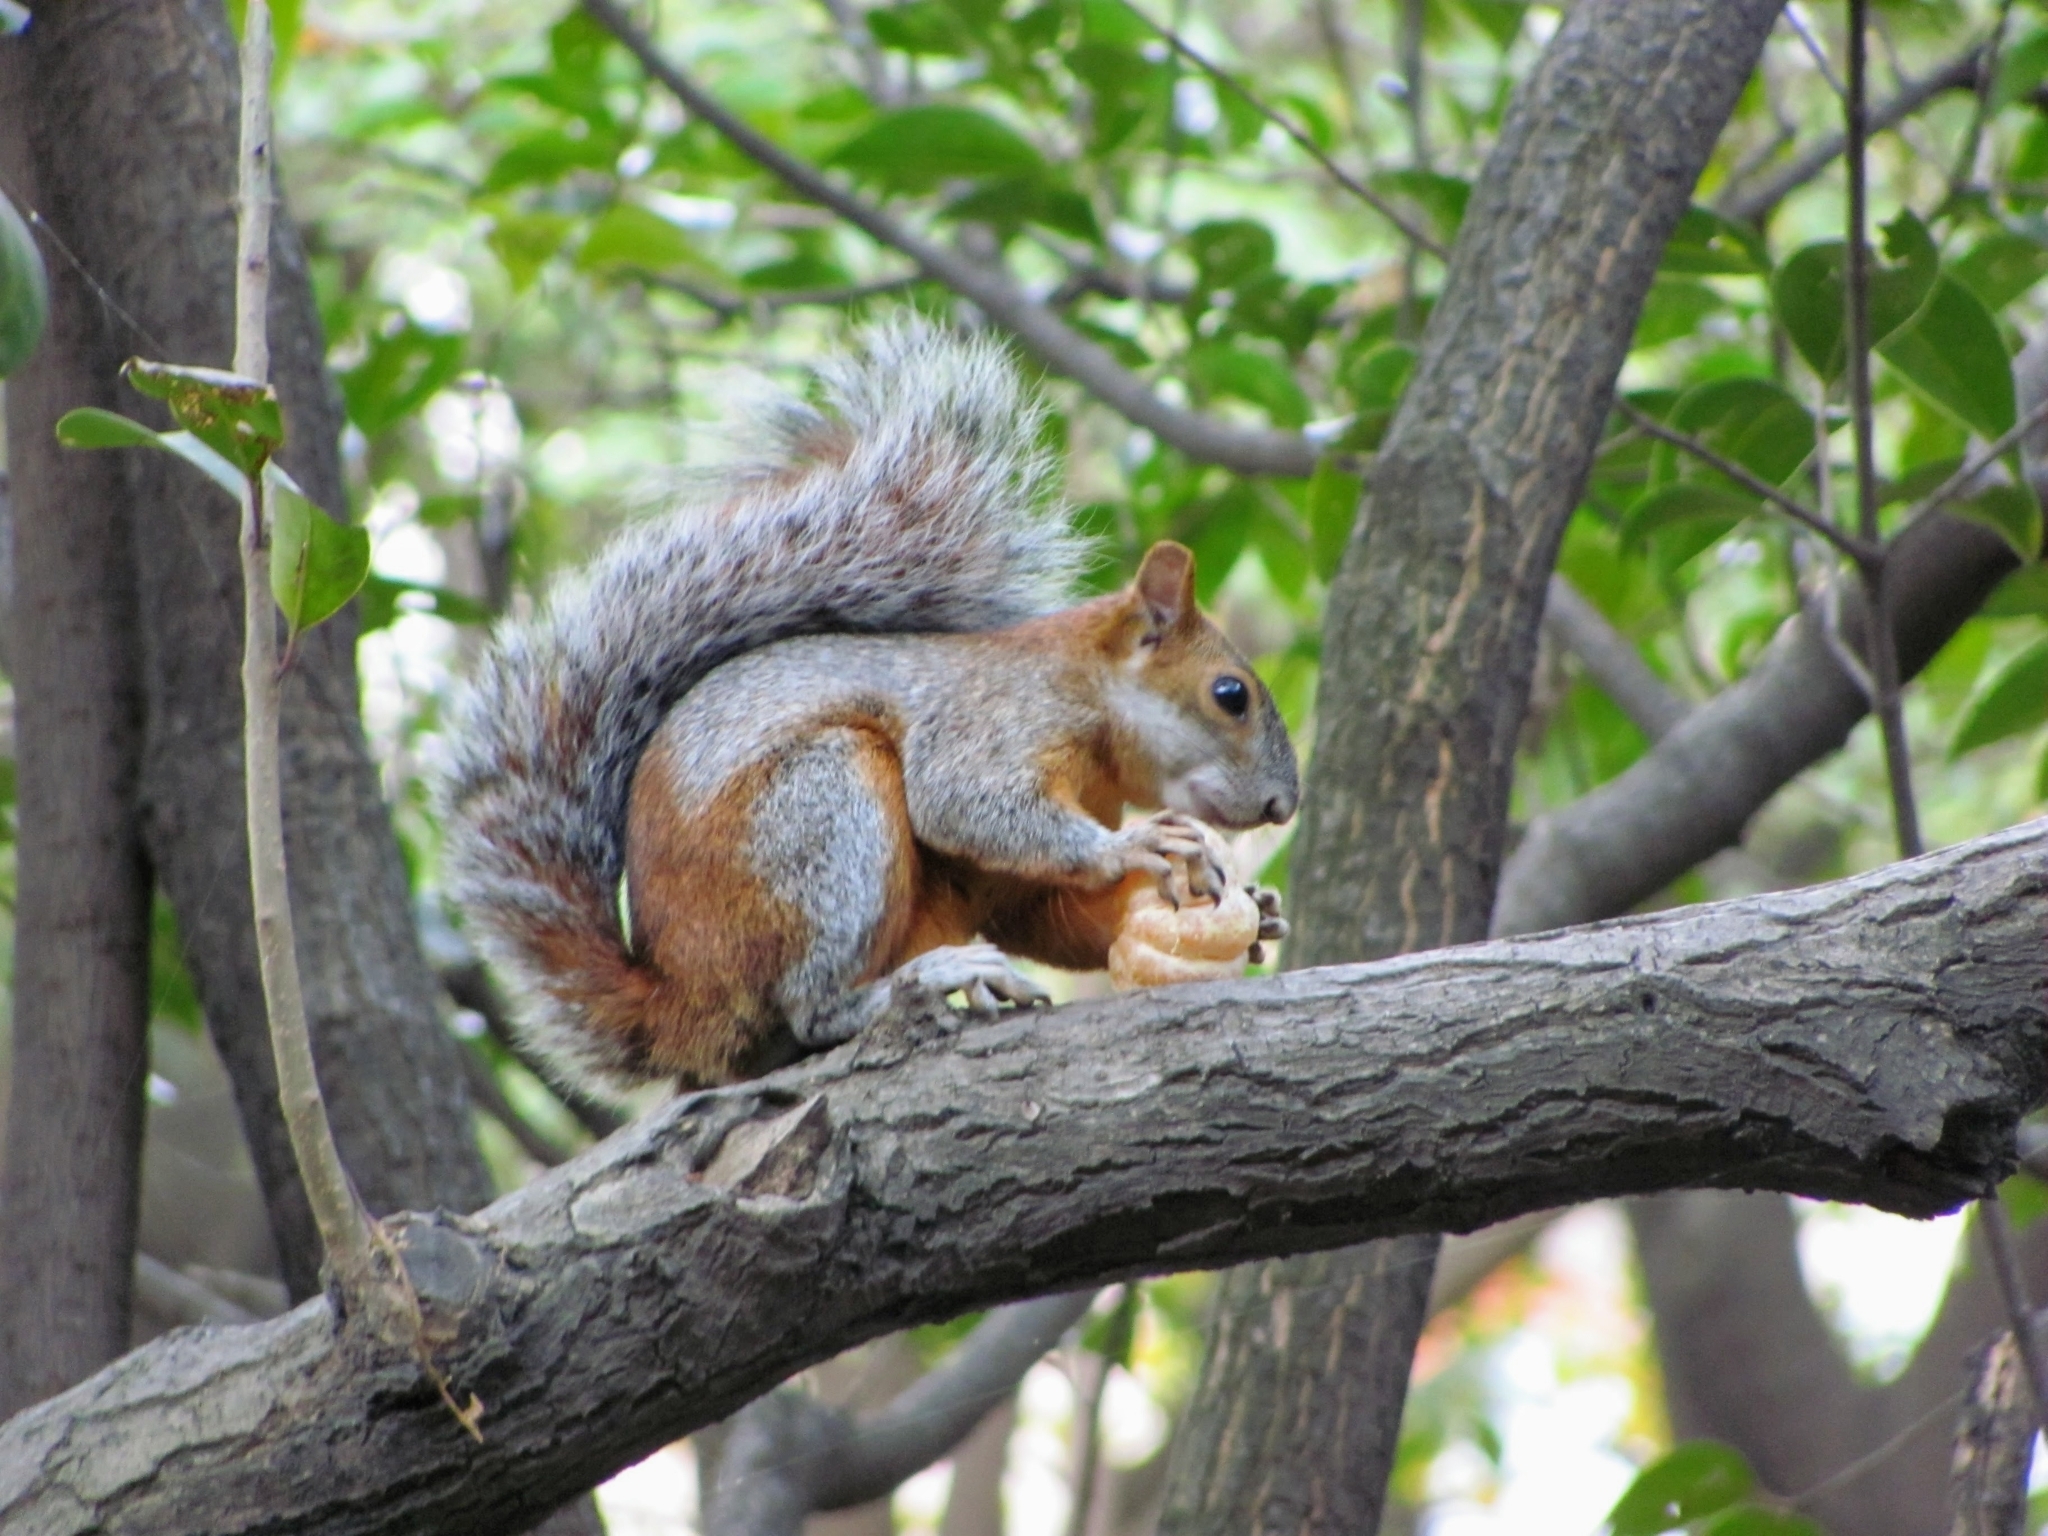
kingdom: Animalia
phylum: Chordata
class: Mammalia
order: Rodentia
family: Sciuridae
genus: Sciurus
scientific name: Sciurus aureogaster
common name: Red-bellied squirrel
